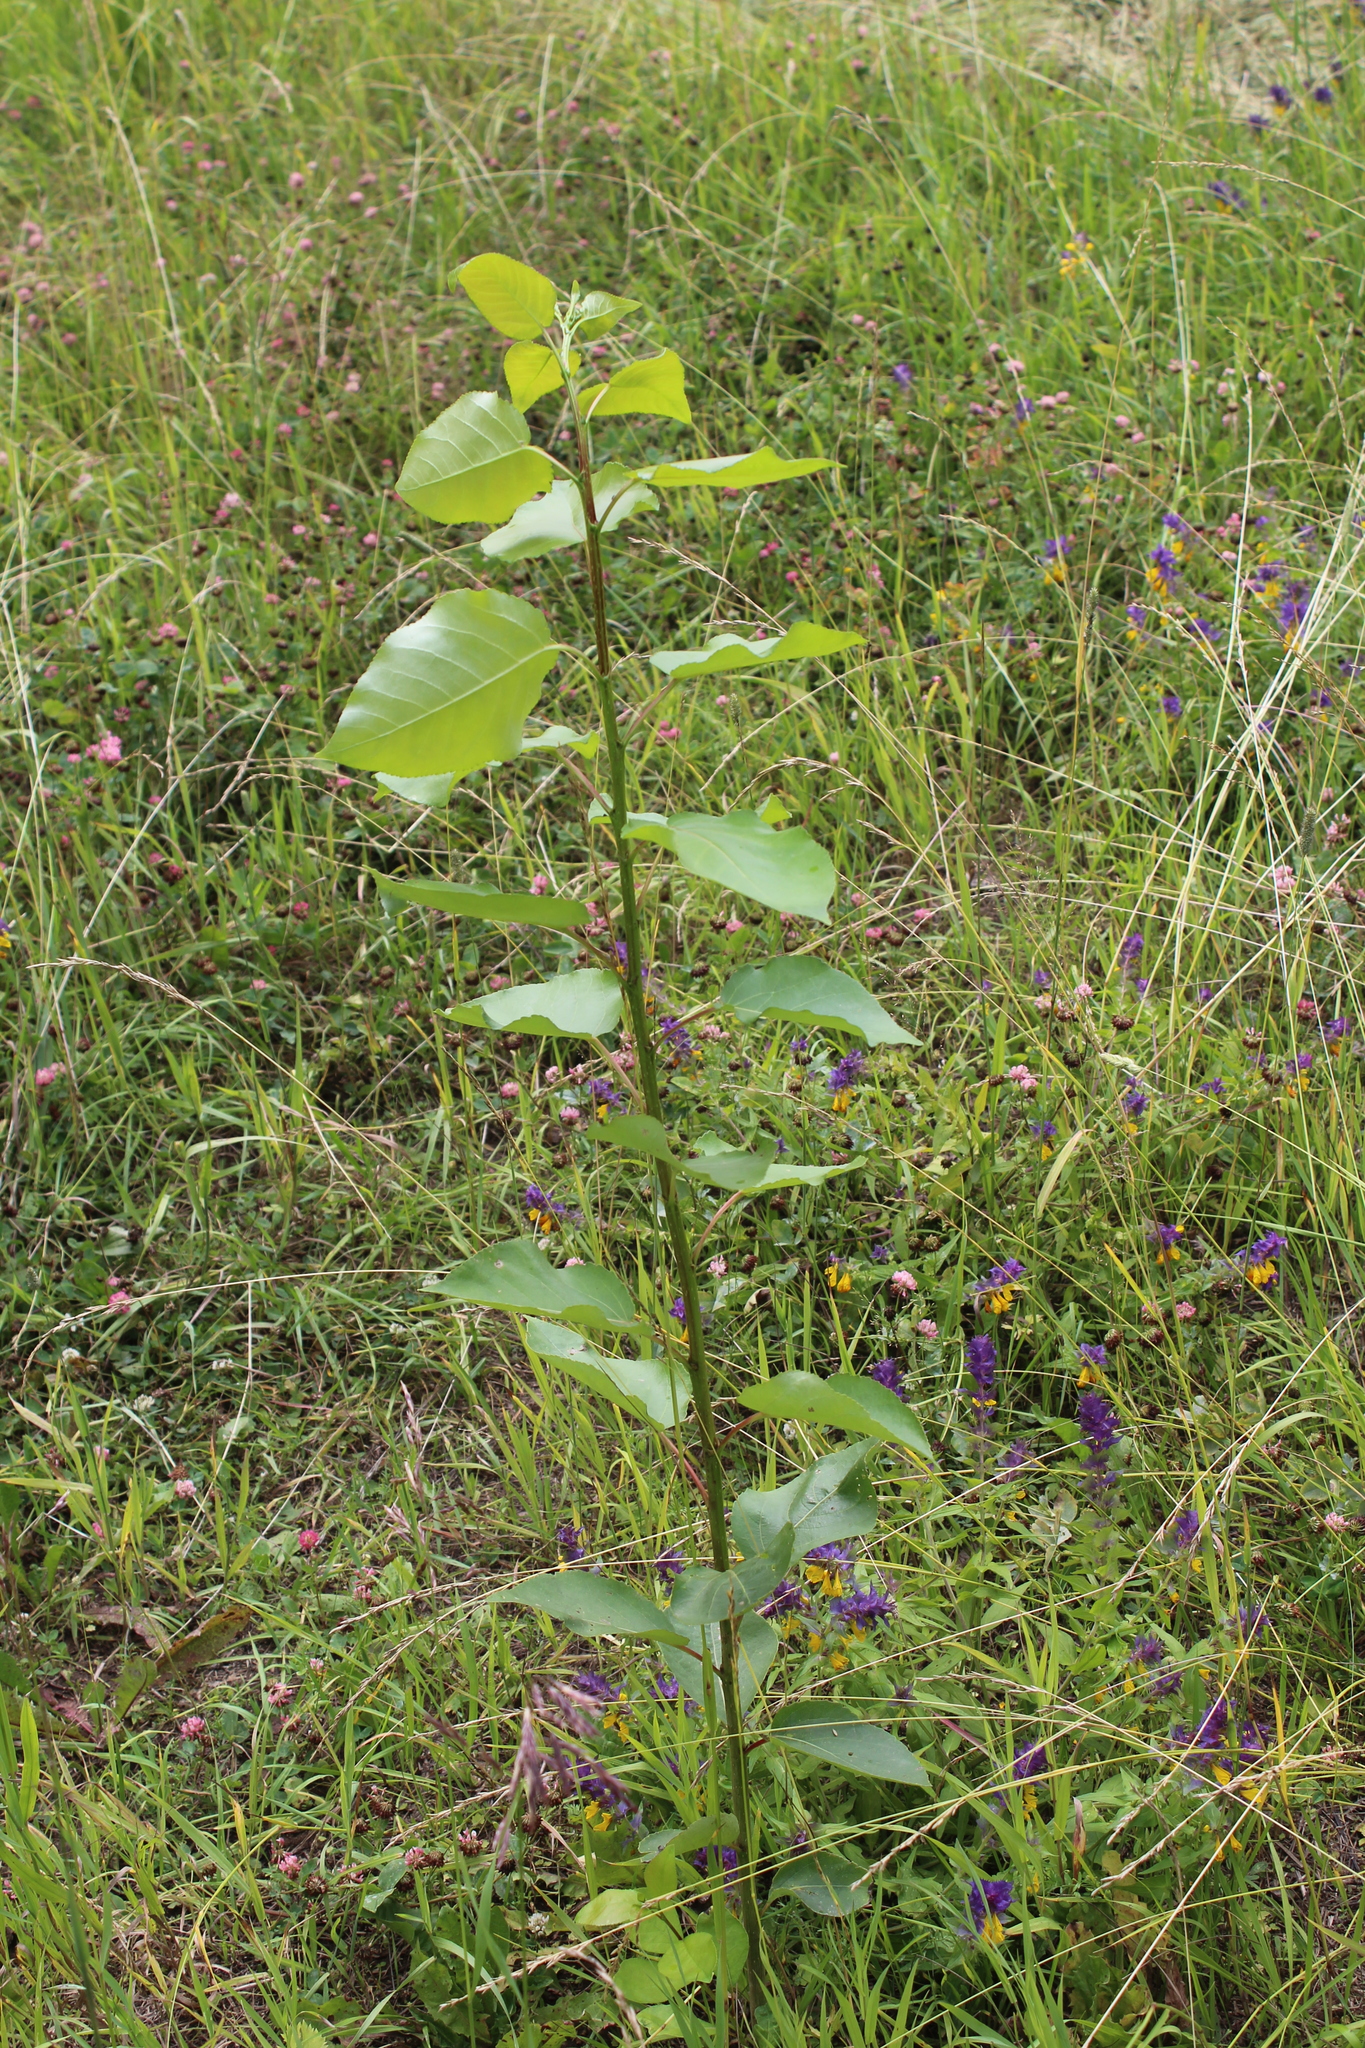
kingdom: Plantae
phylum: Tracheophyta
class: Magnoliopsida
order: Malpighiales
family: Salicaceae
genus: Populus
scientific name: Populus
